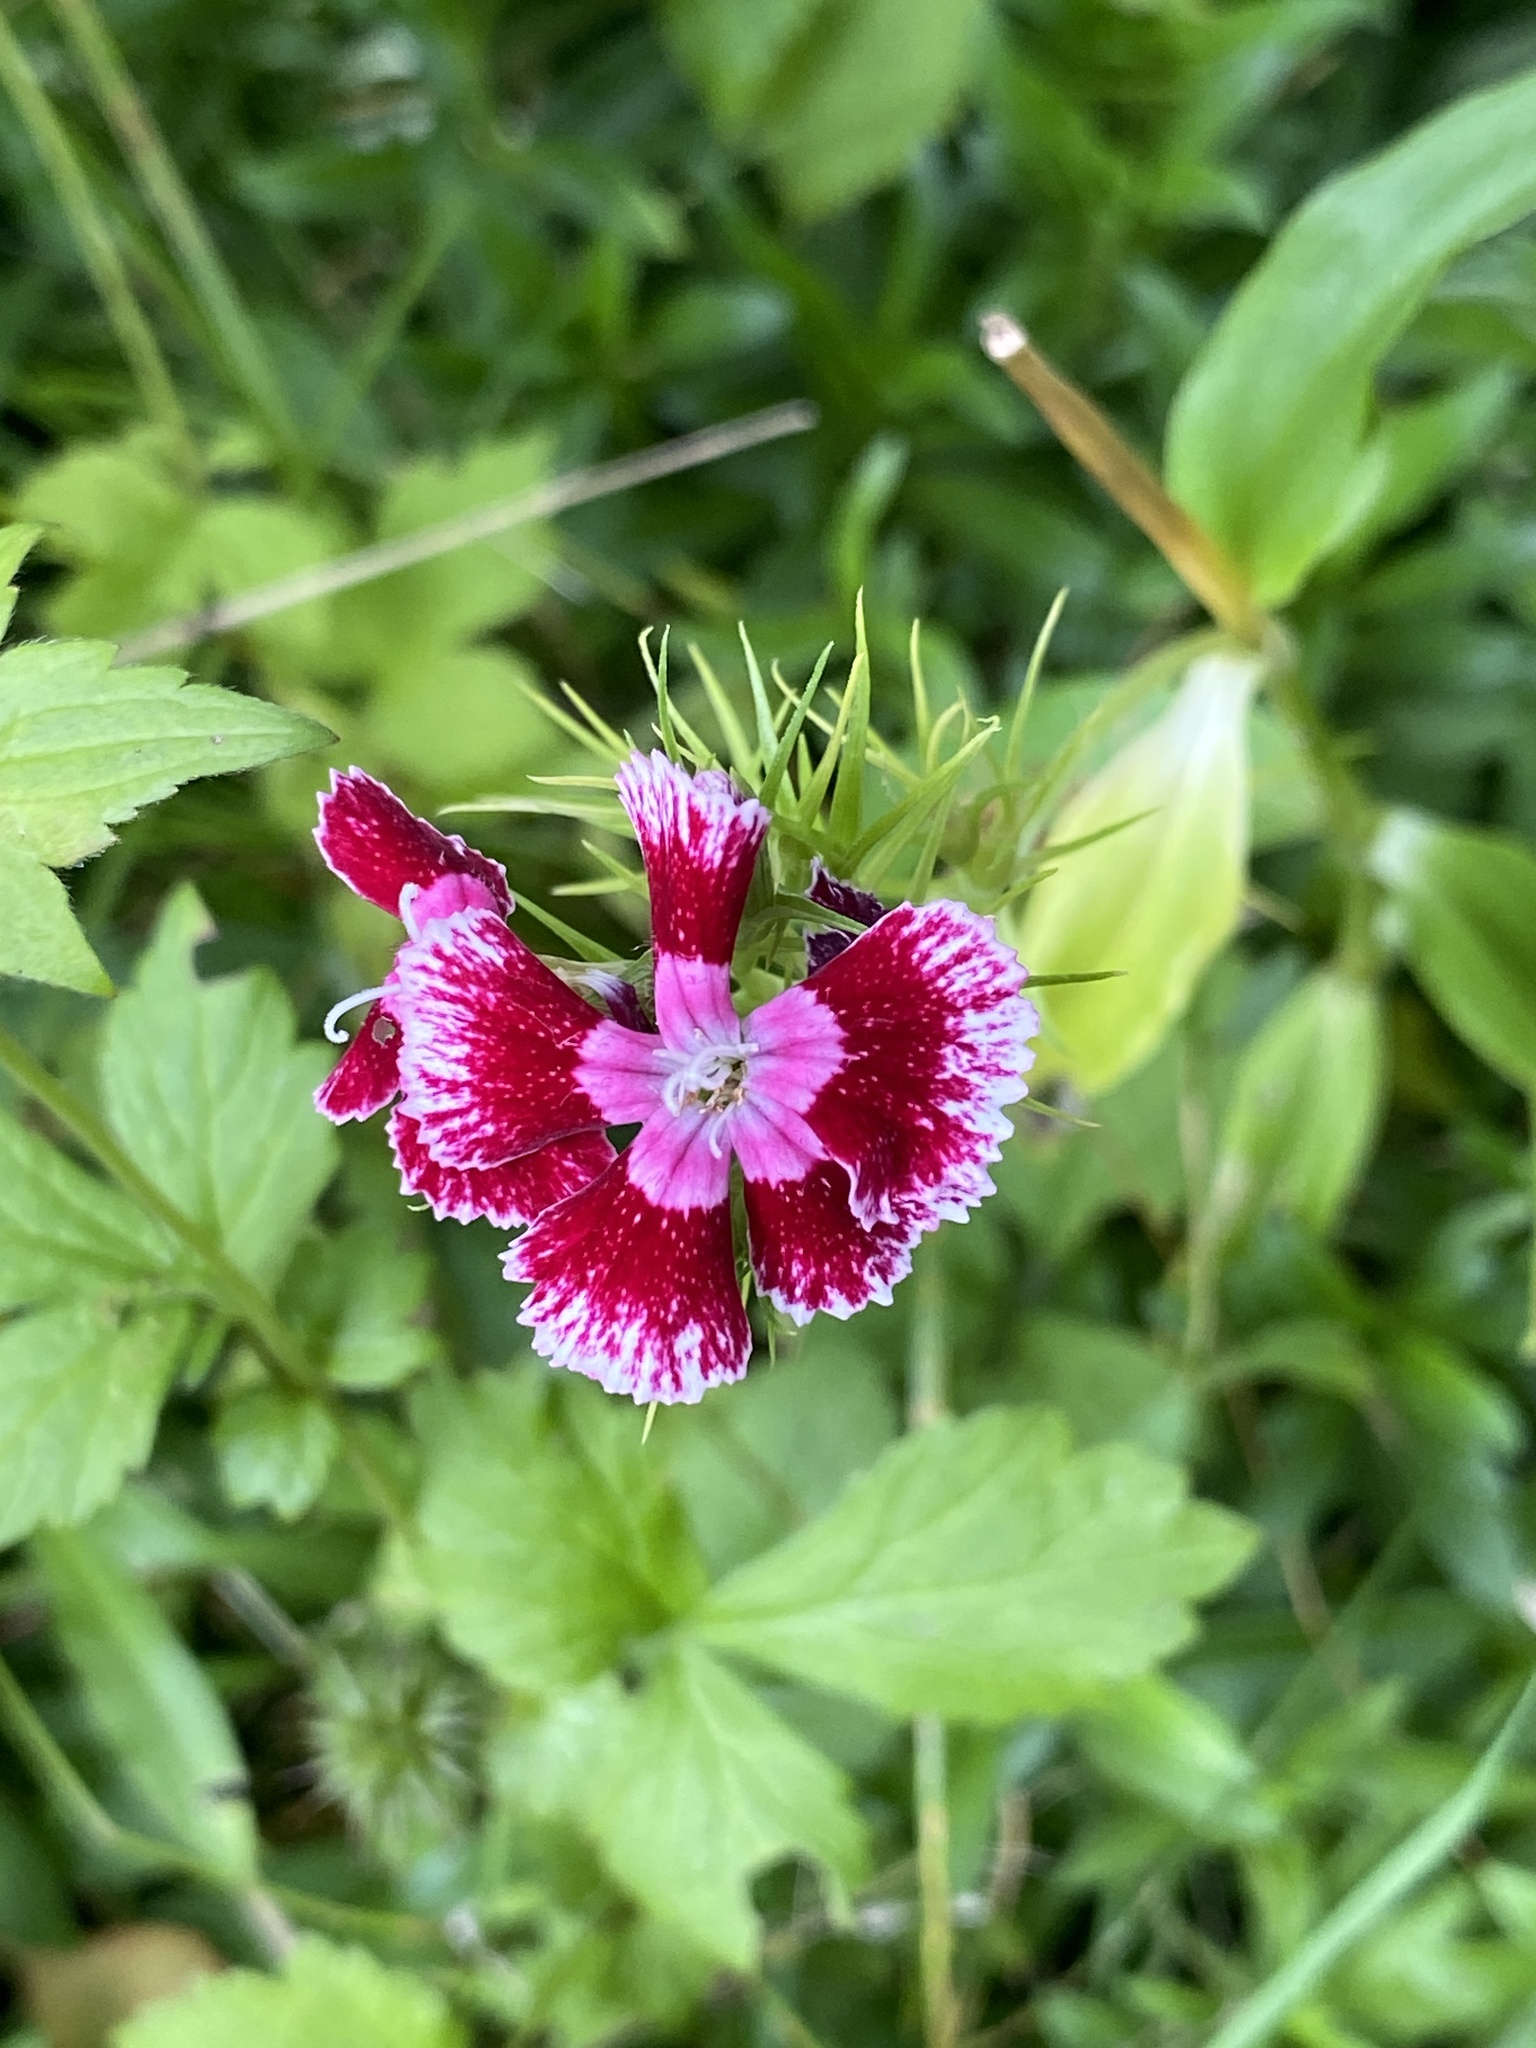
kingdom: Plantae
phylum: Tracheophyta
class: Magnoliopsida
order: Caryophyllales
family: Caryophyllaceae
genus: Dianthus
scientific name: Dianthus barbatus
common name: Sweet-william
